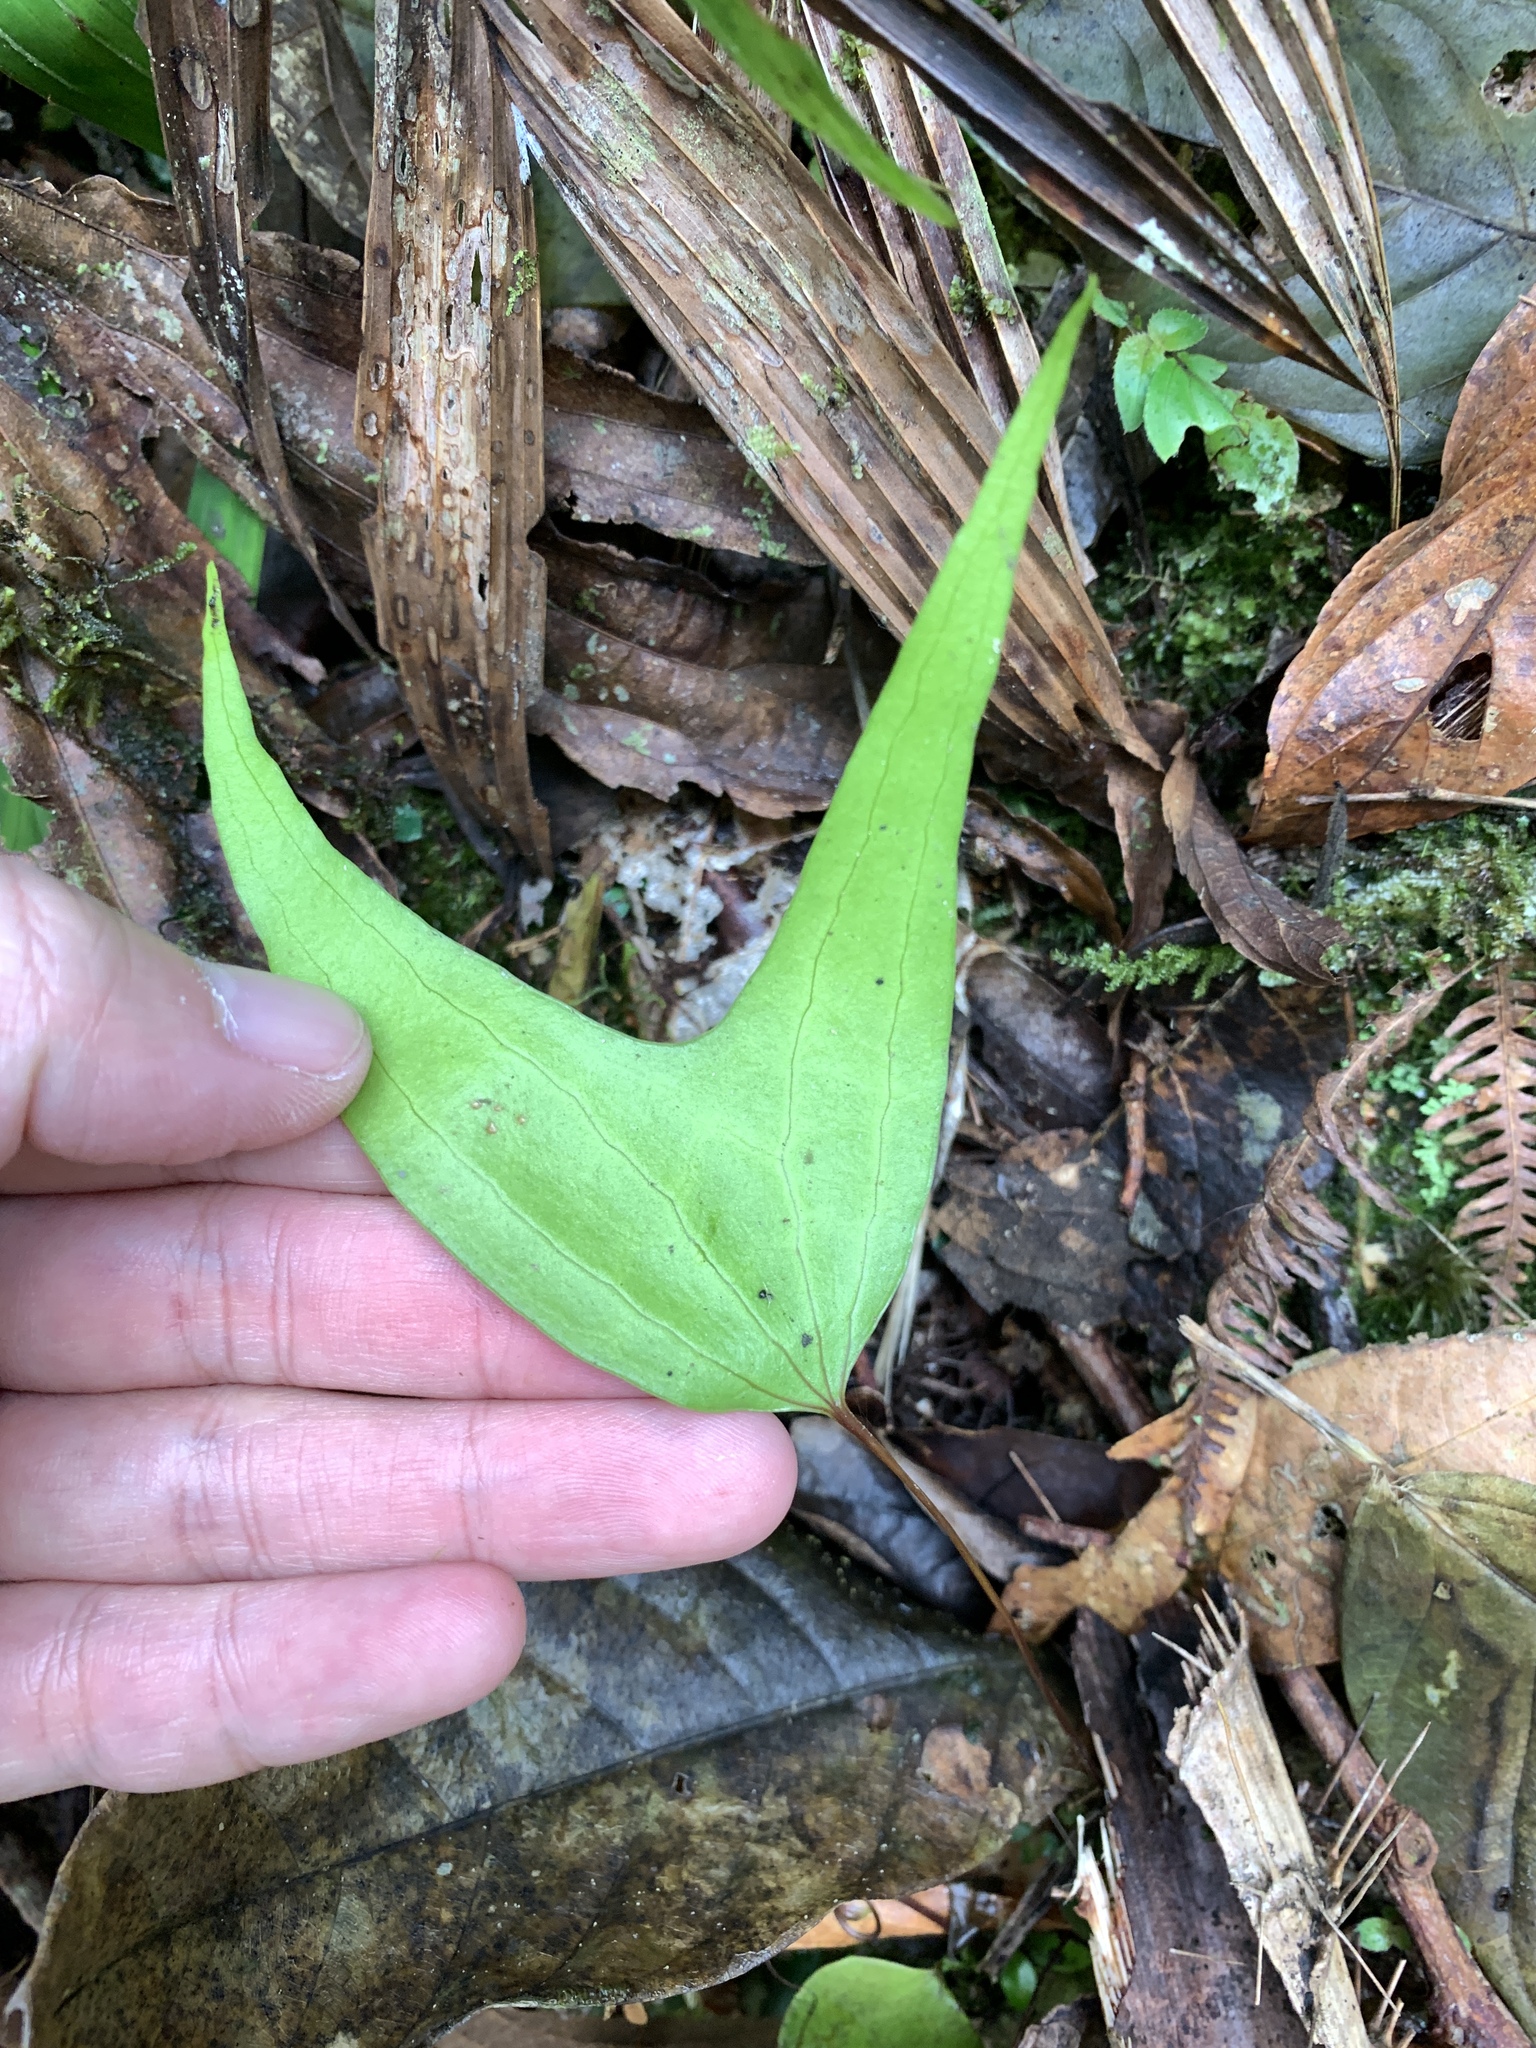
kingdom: Plantae
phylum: Tracheophyta
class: Polypodiopsida
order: Gleicheniales
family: Dipteridaceae
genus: Cheiropleuria
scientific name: Cheiropleuria bicuspis
